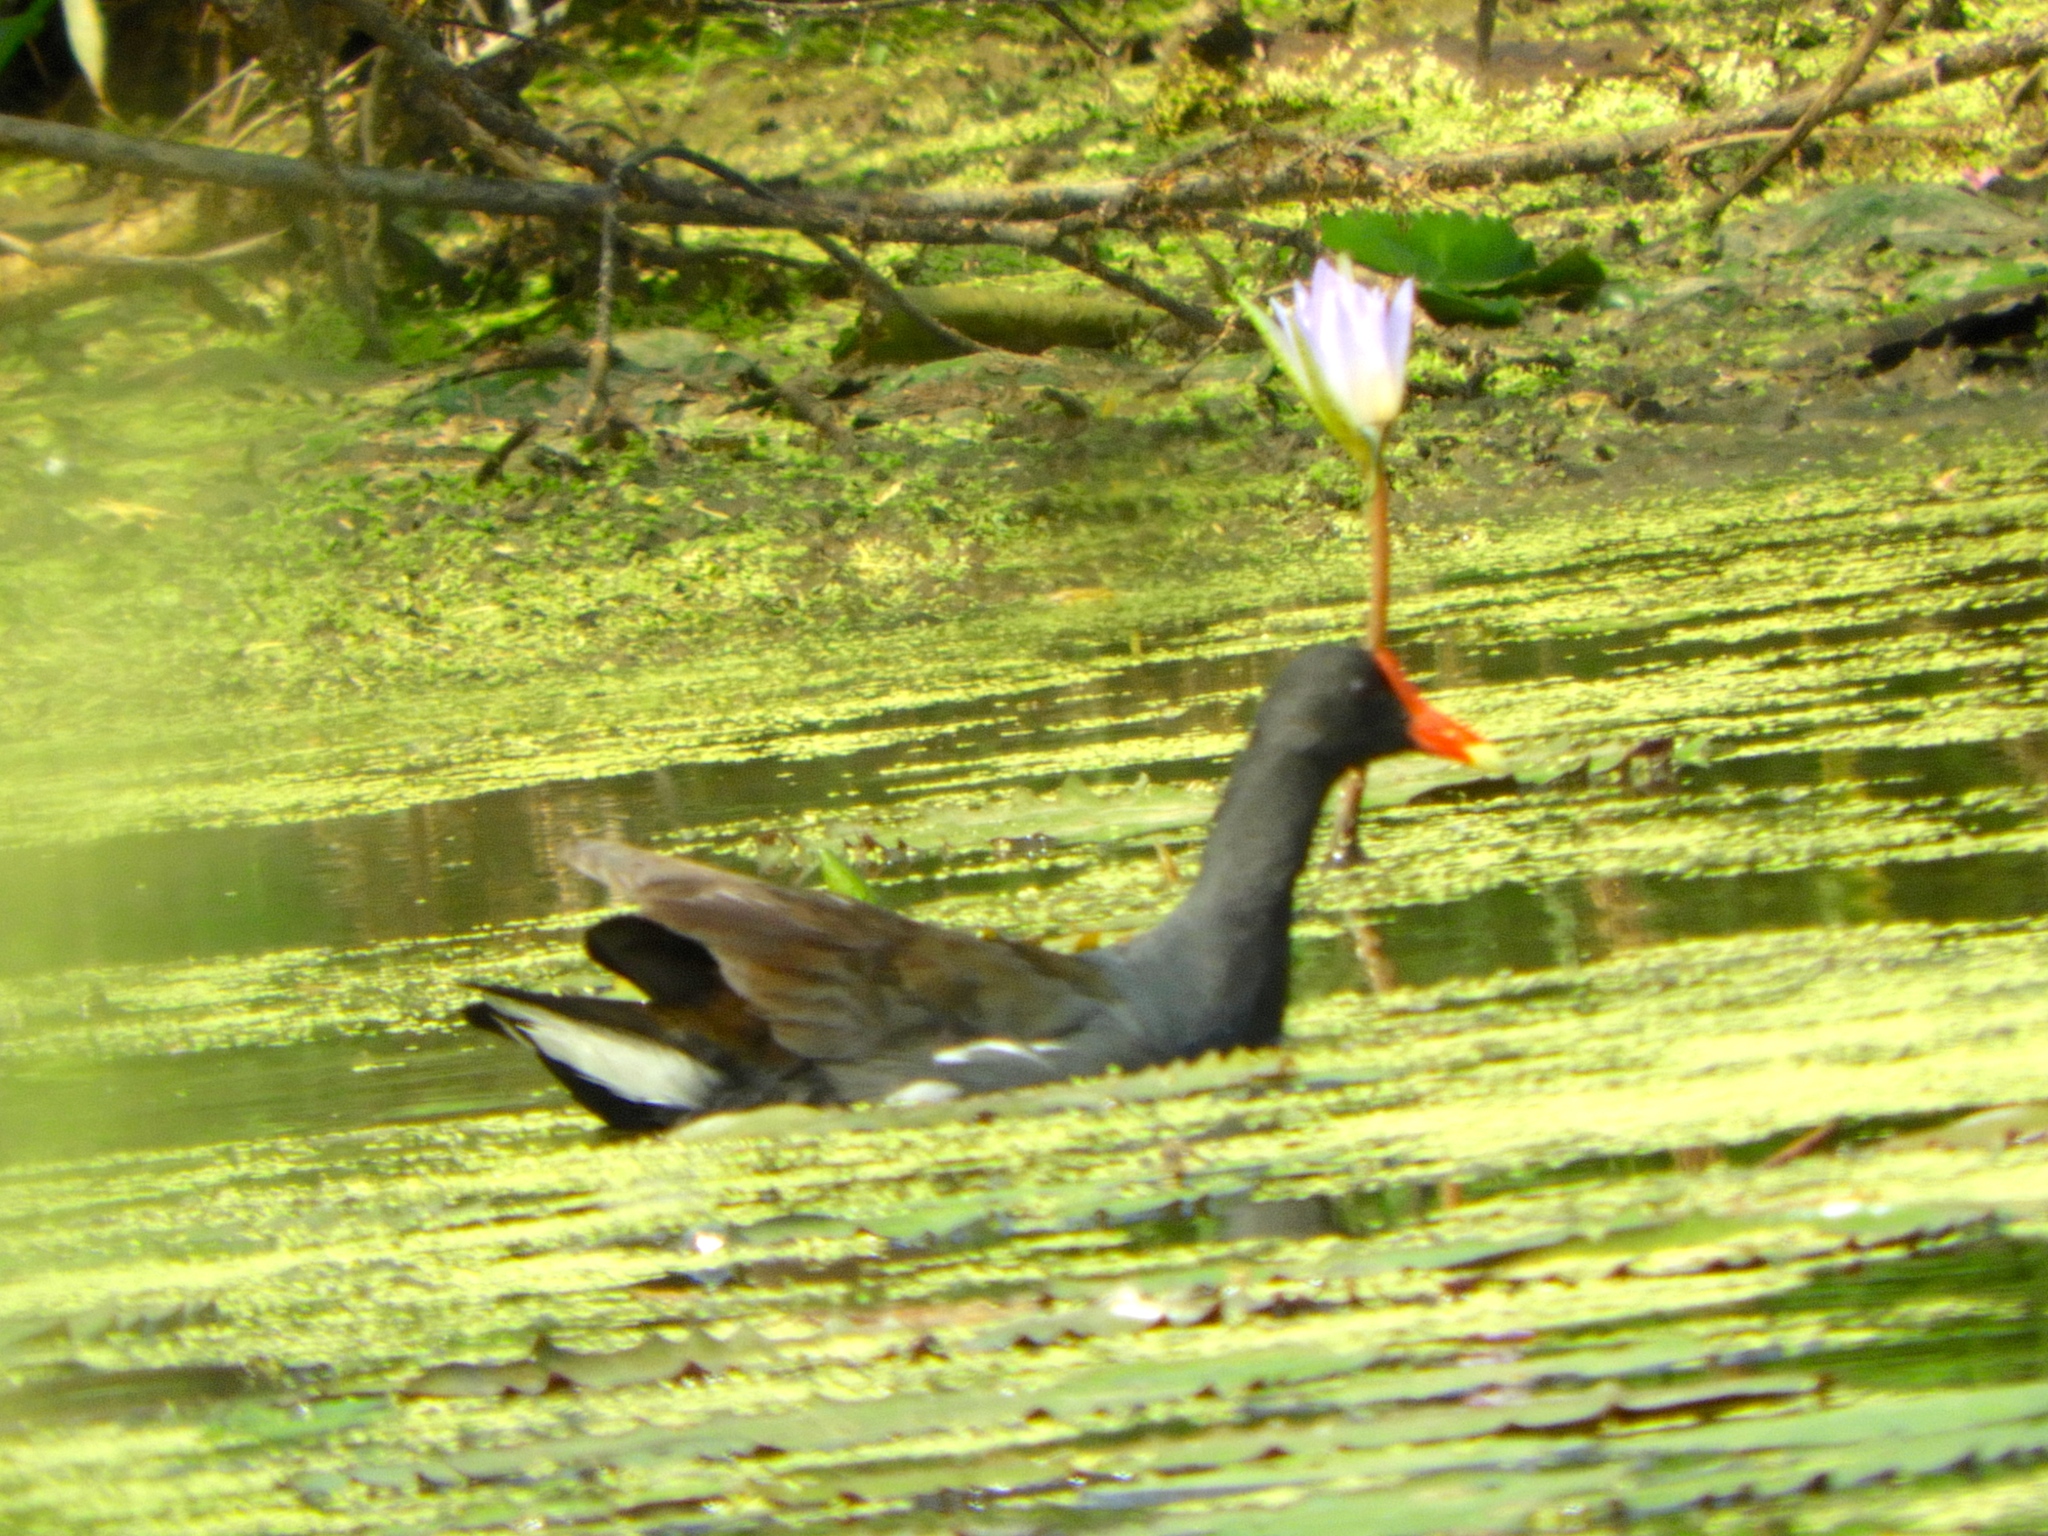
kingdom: Animalia
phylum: Chordata
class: Aves
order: Gruiformes
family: Rallidae
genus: Gallinula
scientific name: Gallinula chloropus
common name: Common moorhen
